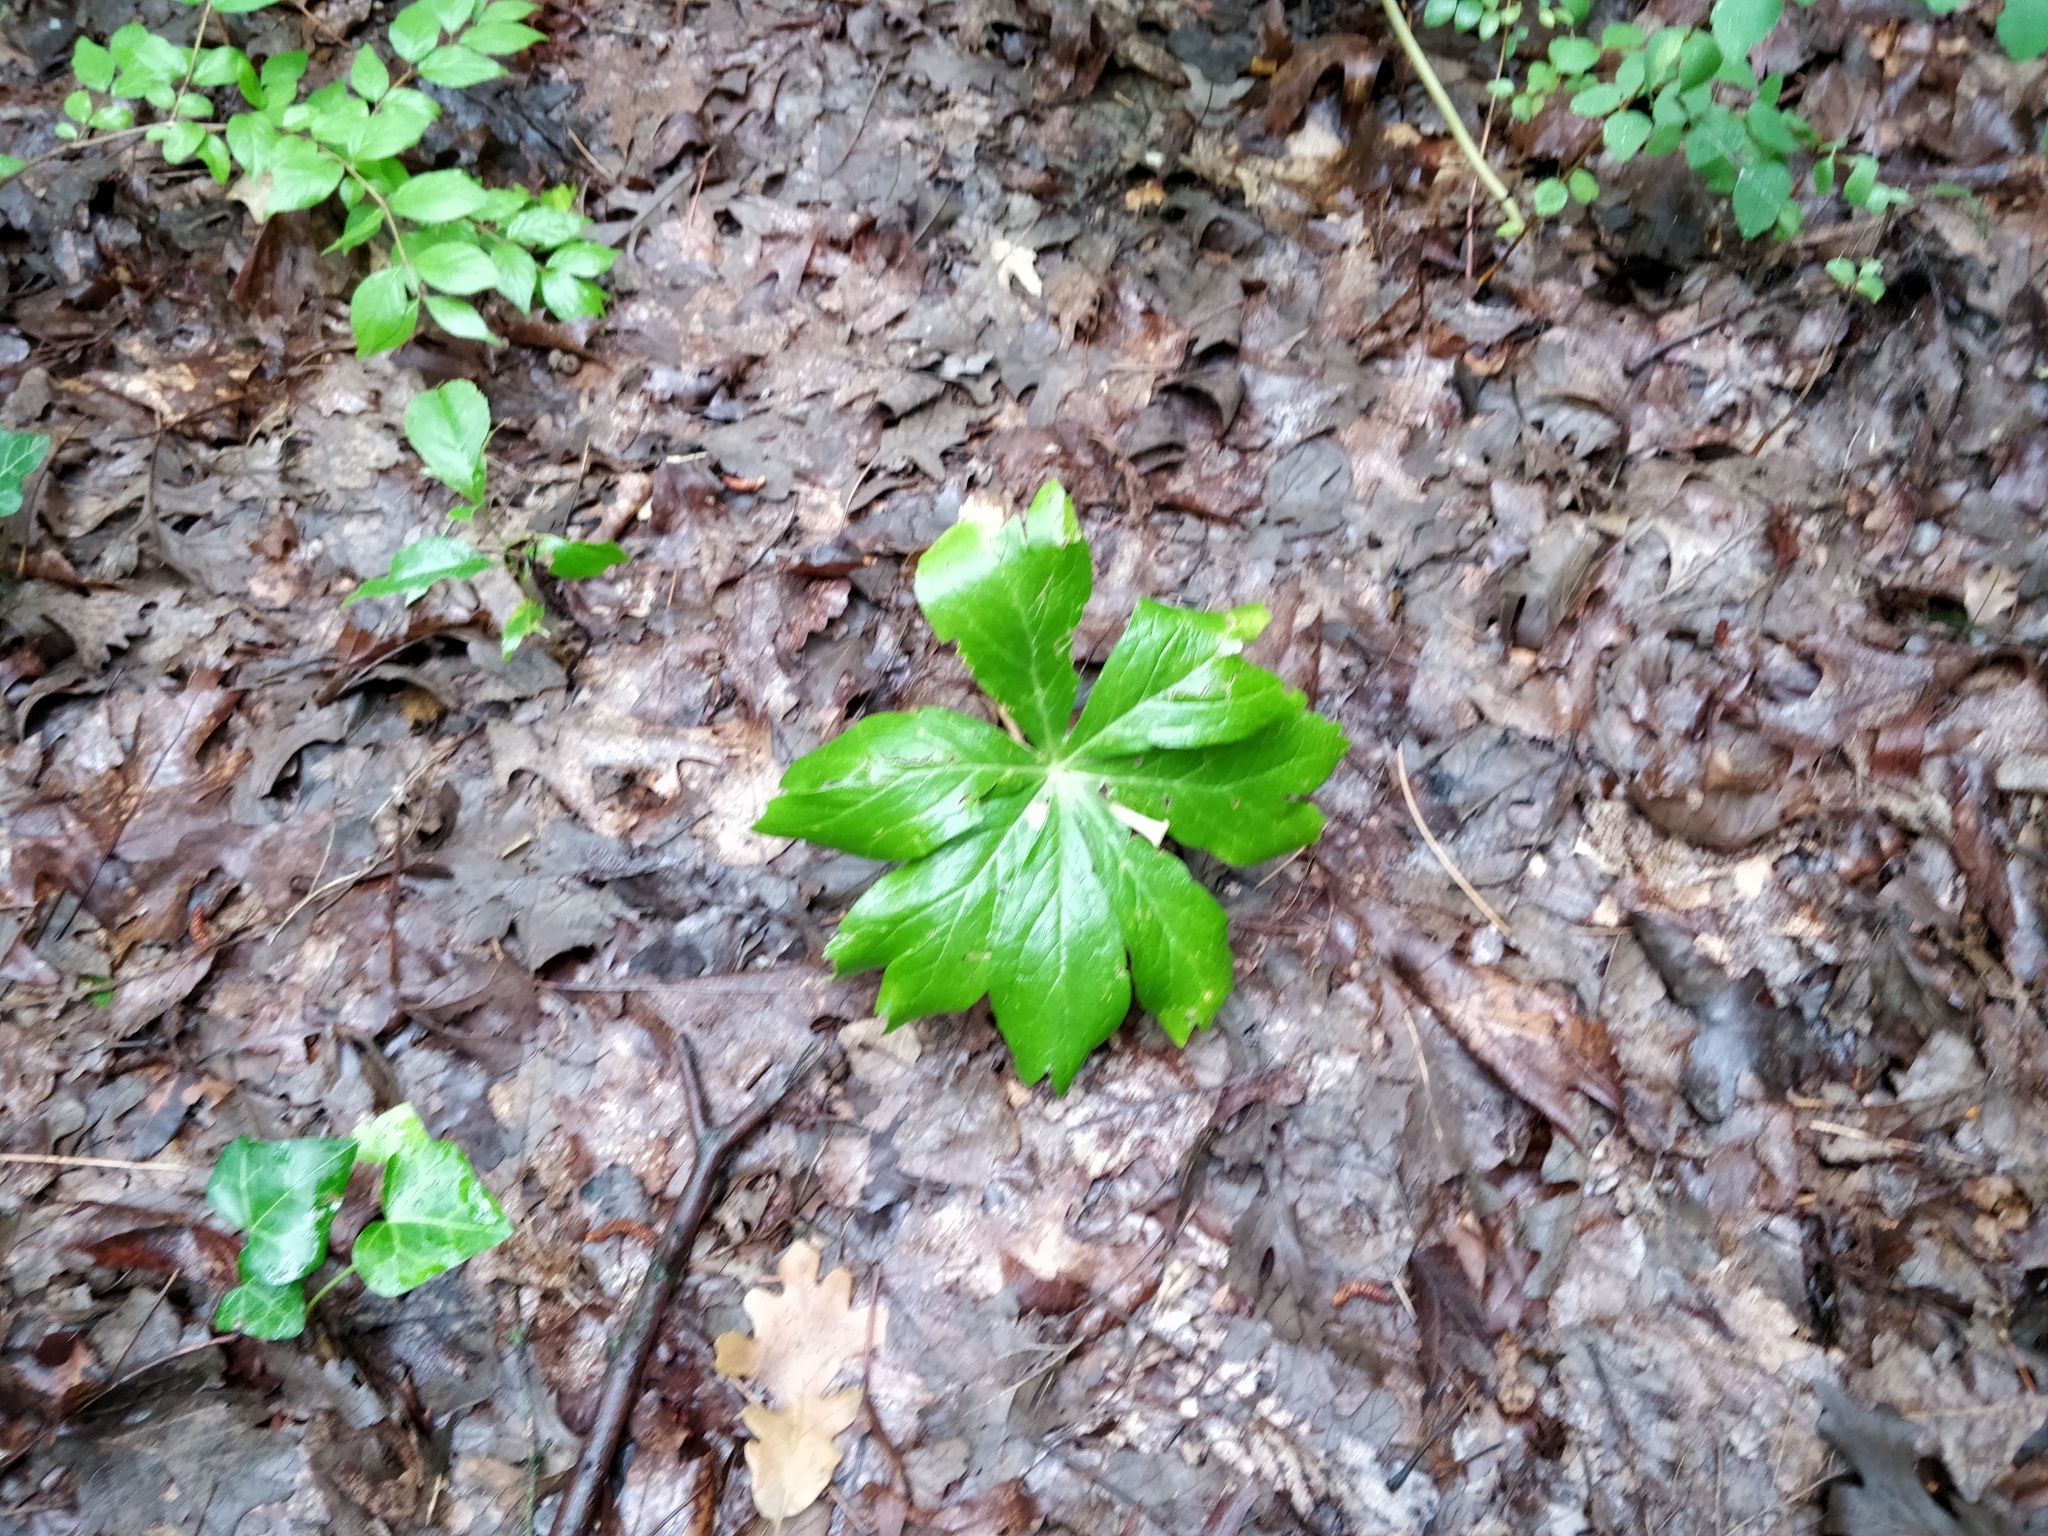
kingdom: Plantae
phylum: Tracheophyta
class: Magnoliopsida
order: Ranunculales
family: Berberidaceae
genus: Podophyllum
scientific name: Podophyllum peltatum
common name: Wild mandrake
